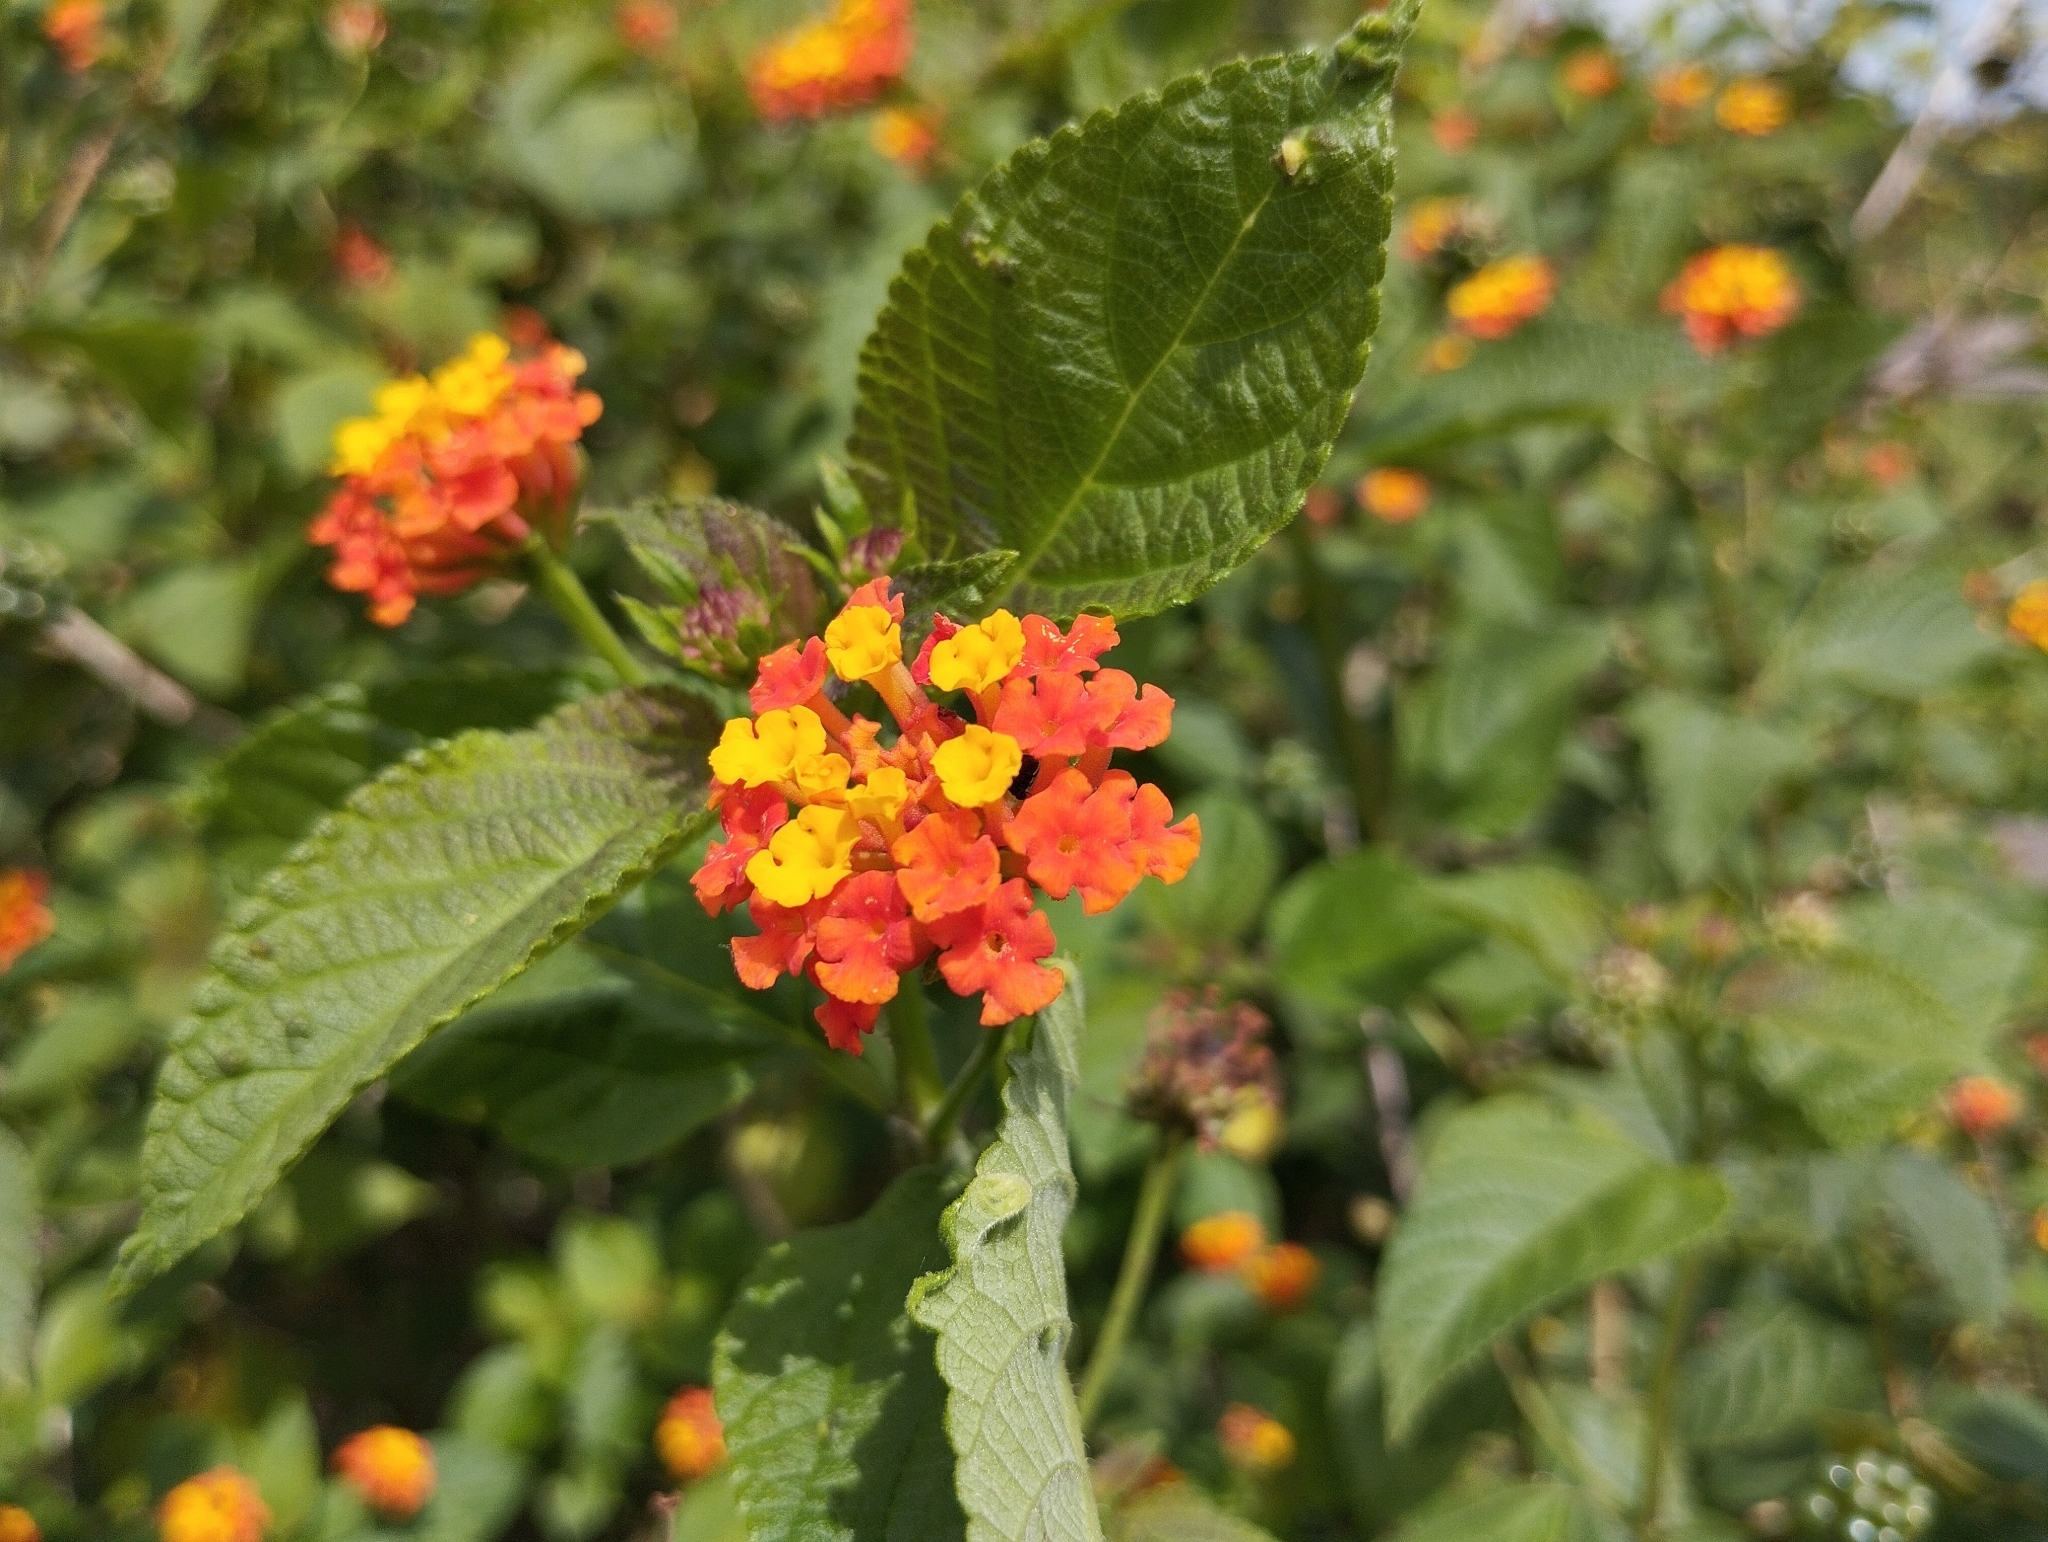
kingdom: Plantae
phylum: Tracheophyta
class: Magnoliopsida
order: Lamiales
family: Verbenaceae
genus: Lantana
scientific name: Lantana camara
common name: Lantana
